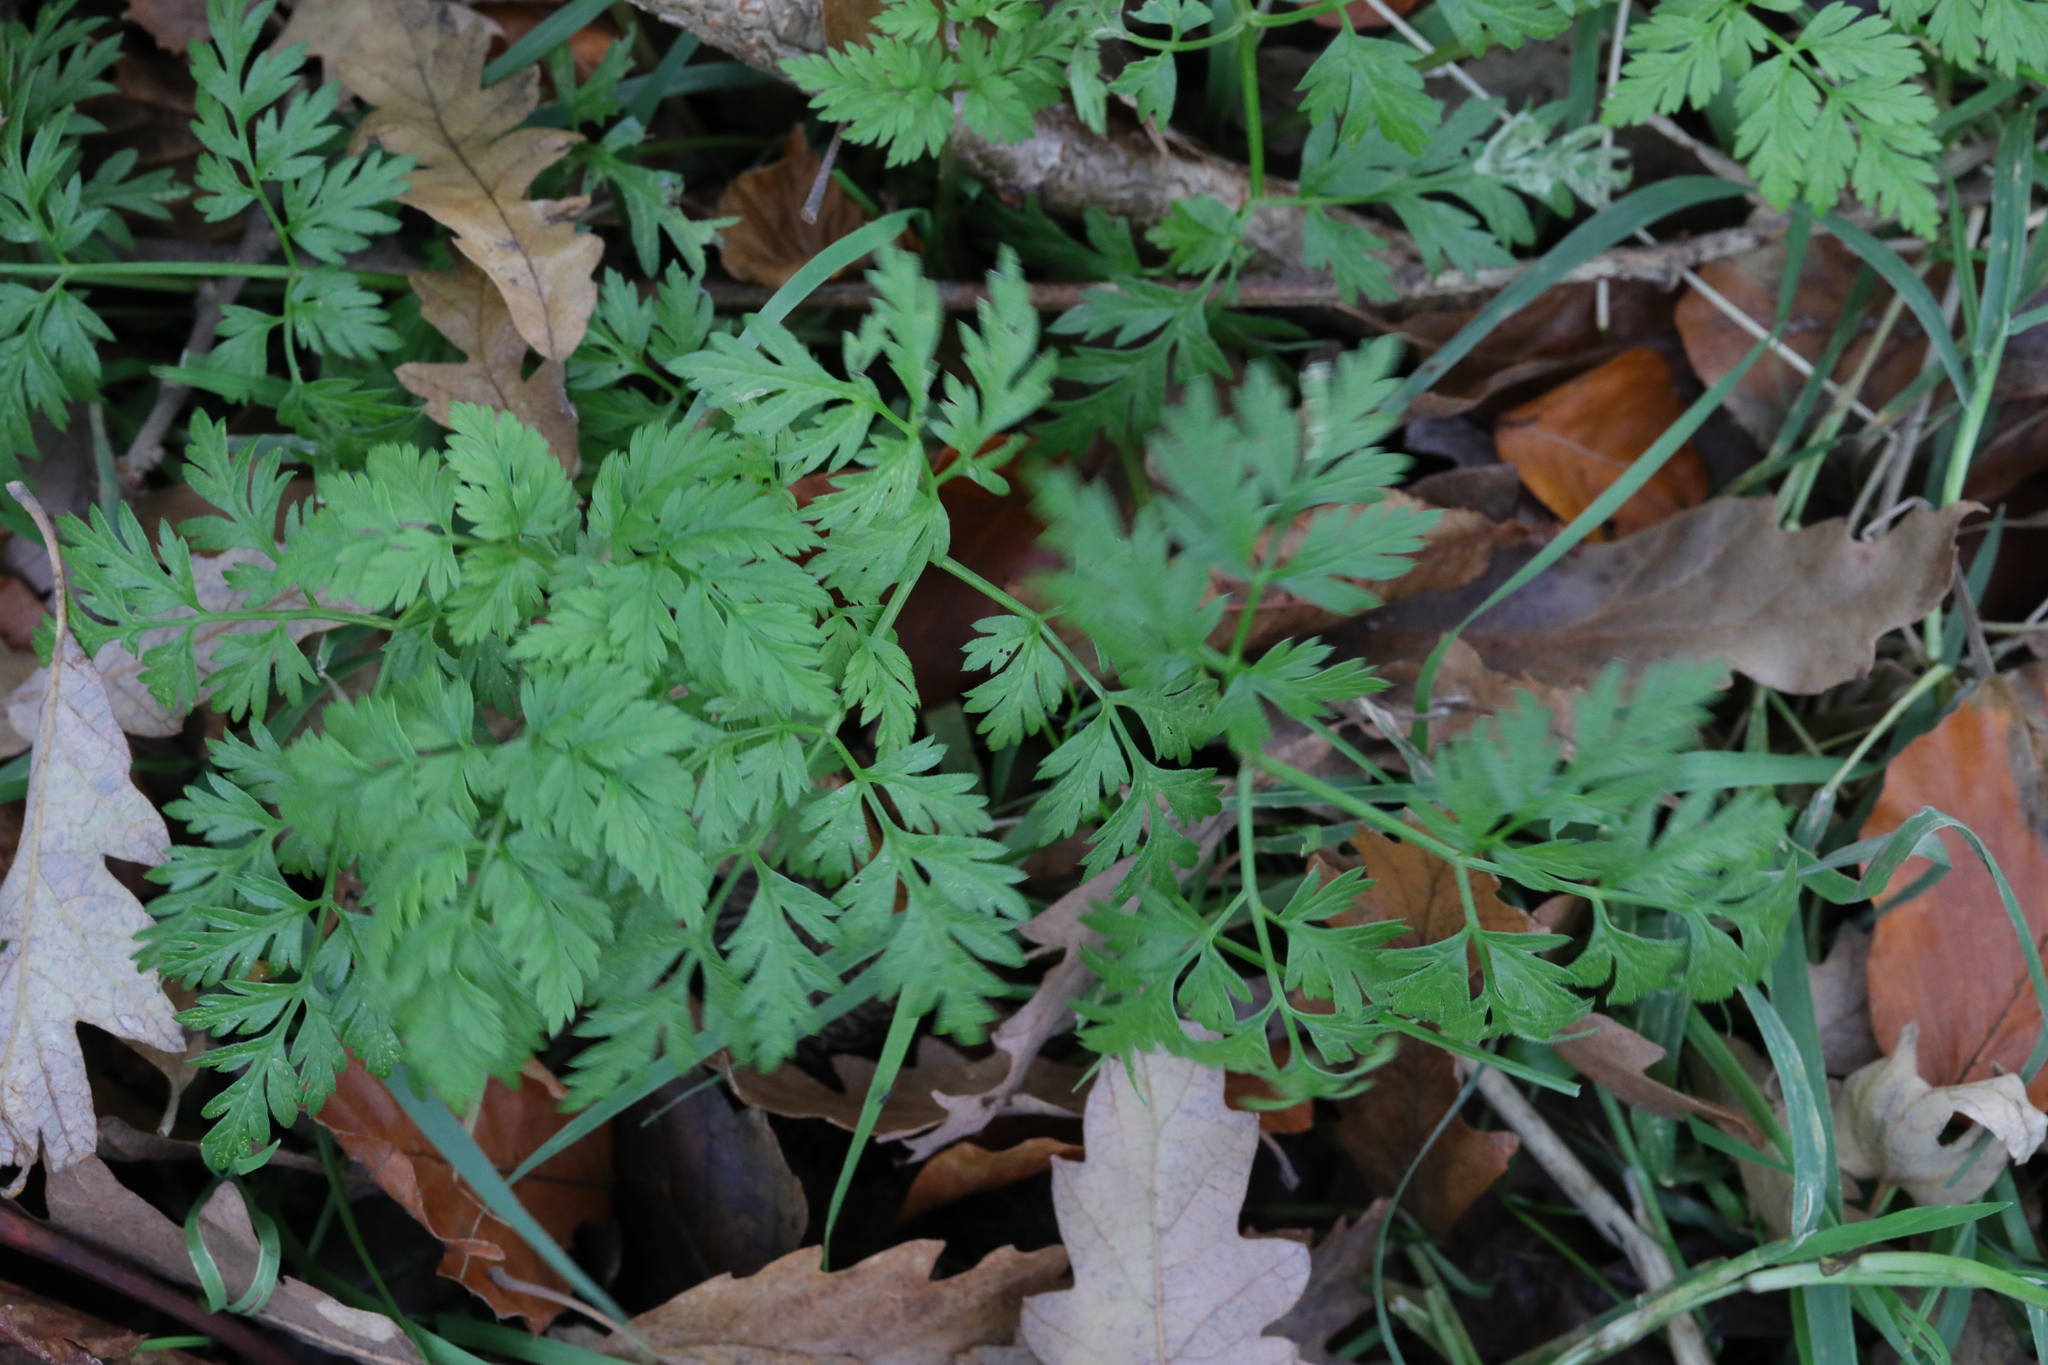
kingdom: Plantae
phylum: Tracheophyta
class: Magnoliopsida
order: Apiales
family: Apiaceae
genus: Anthriscus
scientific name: Anthriscus sylvestris
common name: Cow parsley
